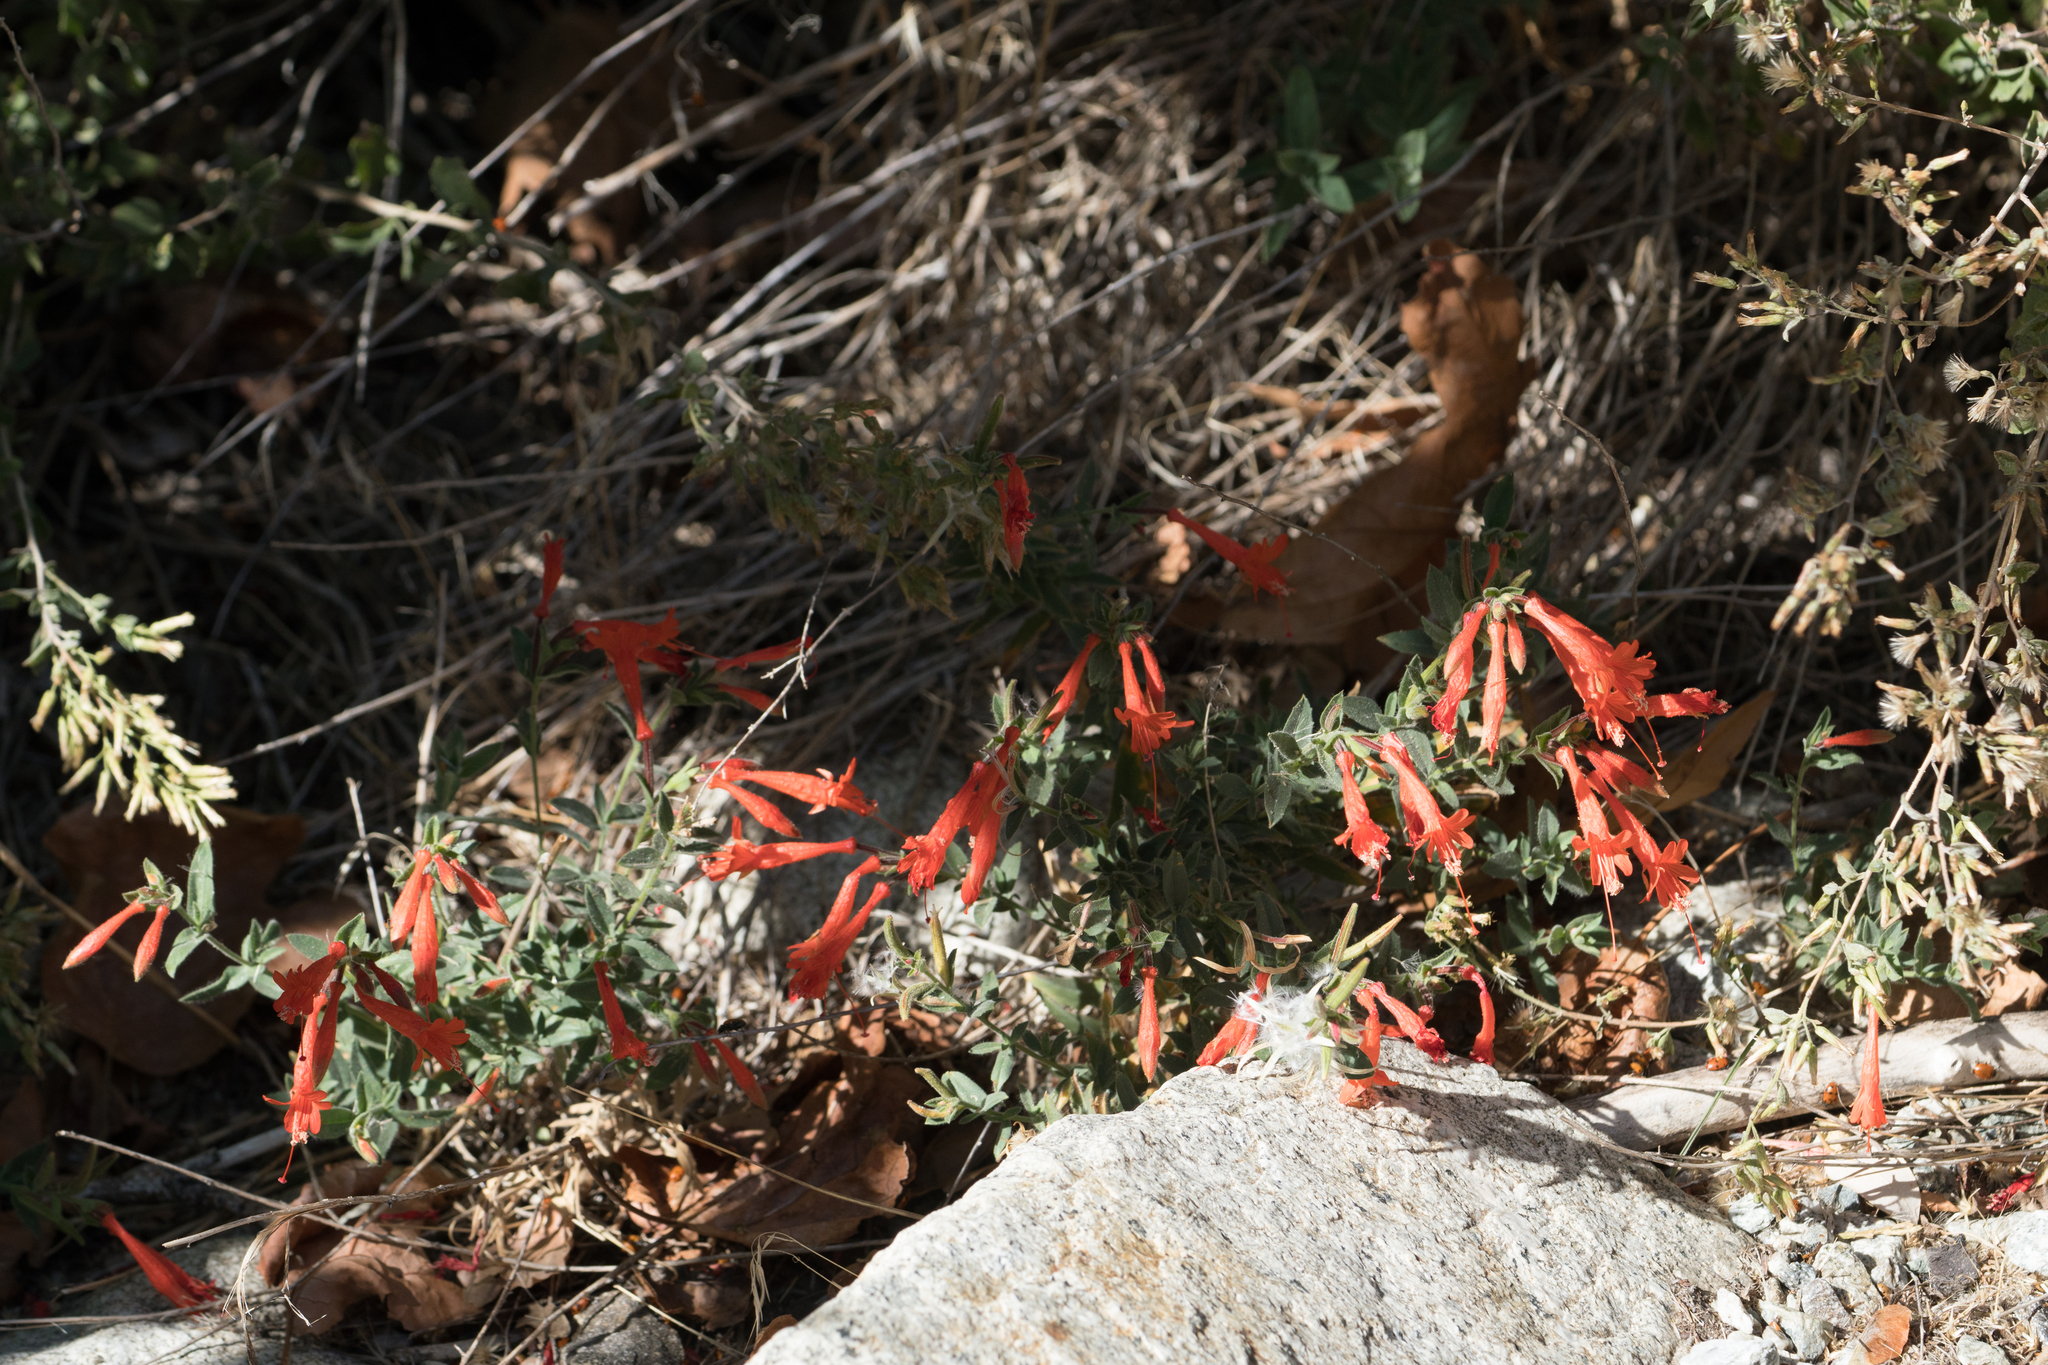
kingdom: Plantae
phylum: Tracheophyta
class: Magnoliopsida
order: Myrtales
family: Onagraceae
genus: Epilobium
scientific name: Epilobium canum
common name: California-fuchsia
